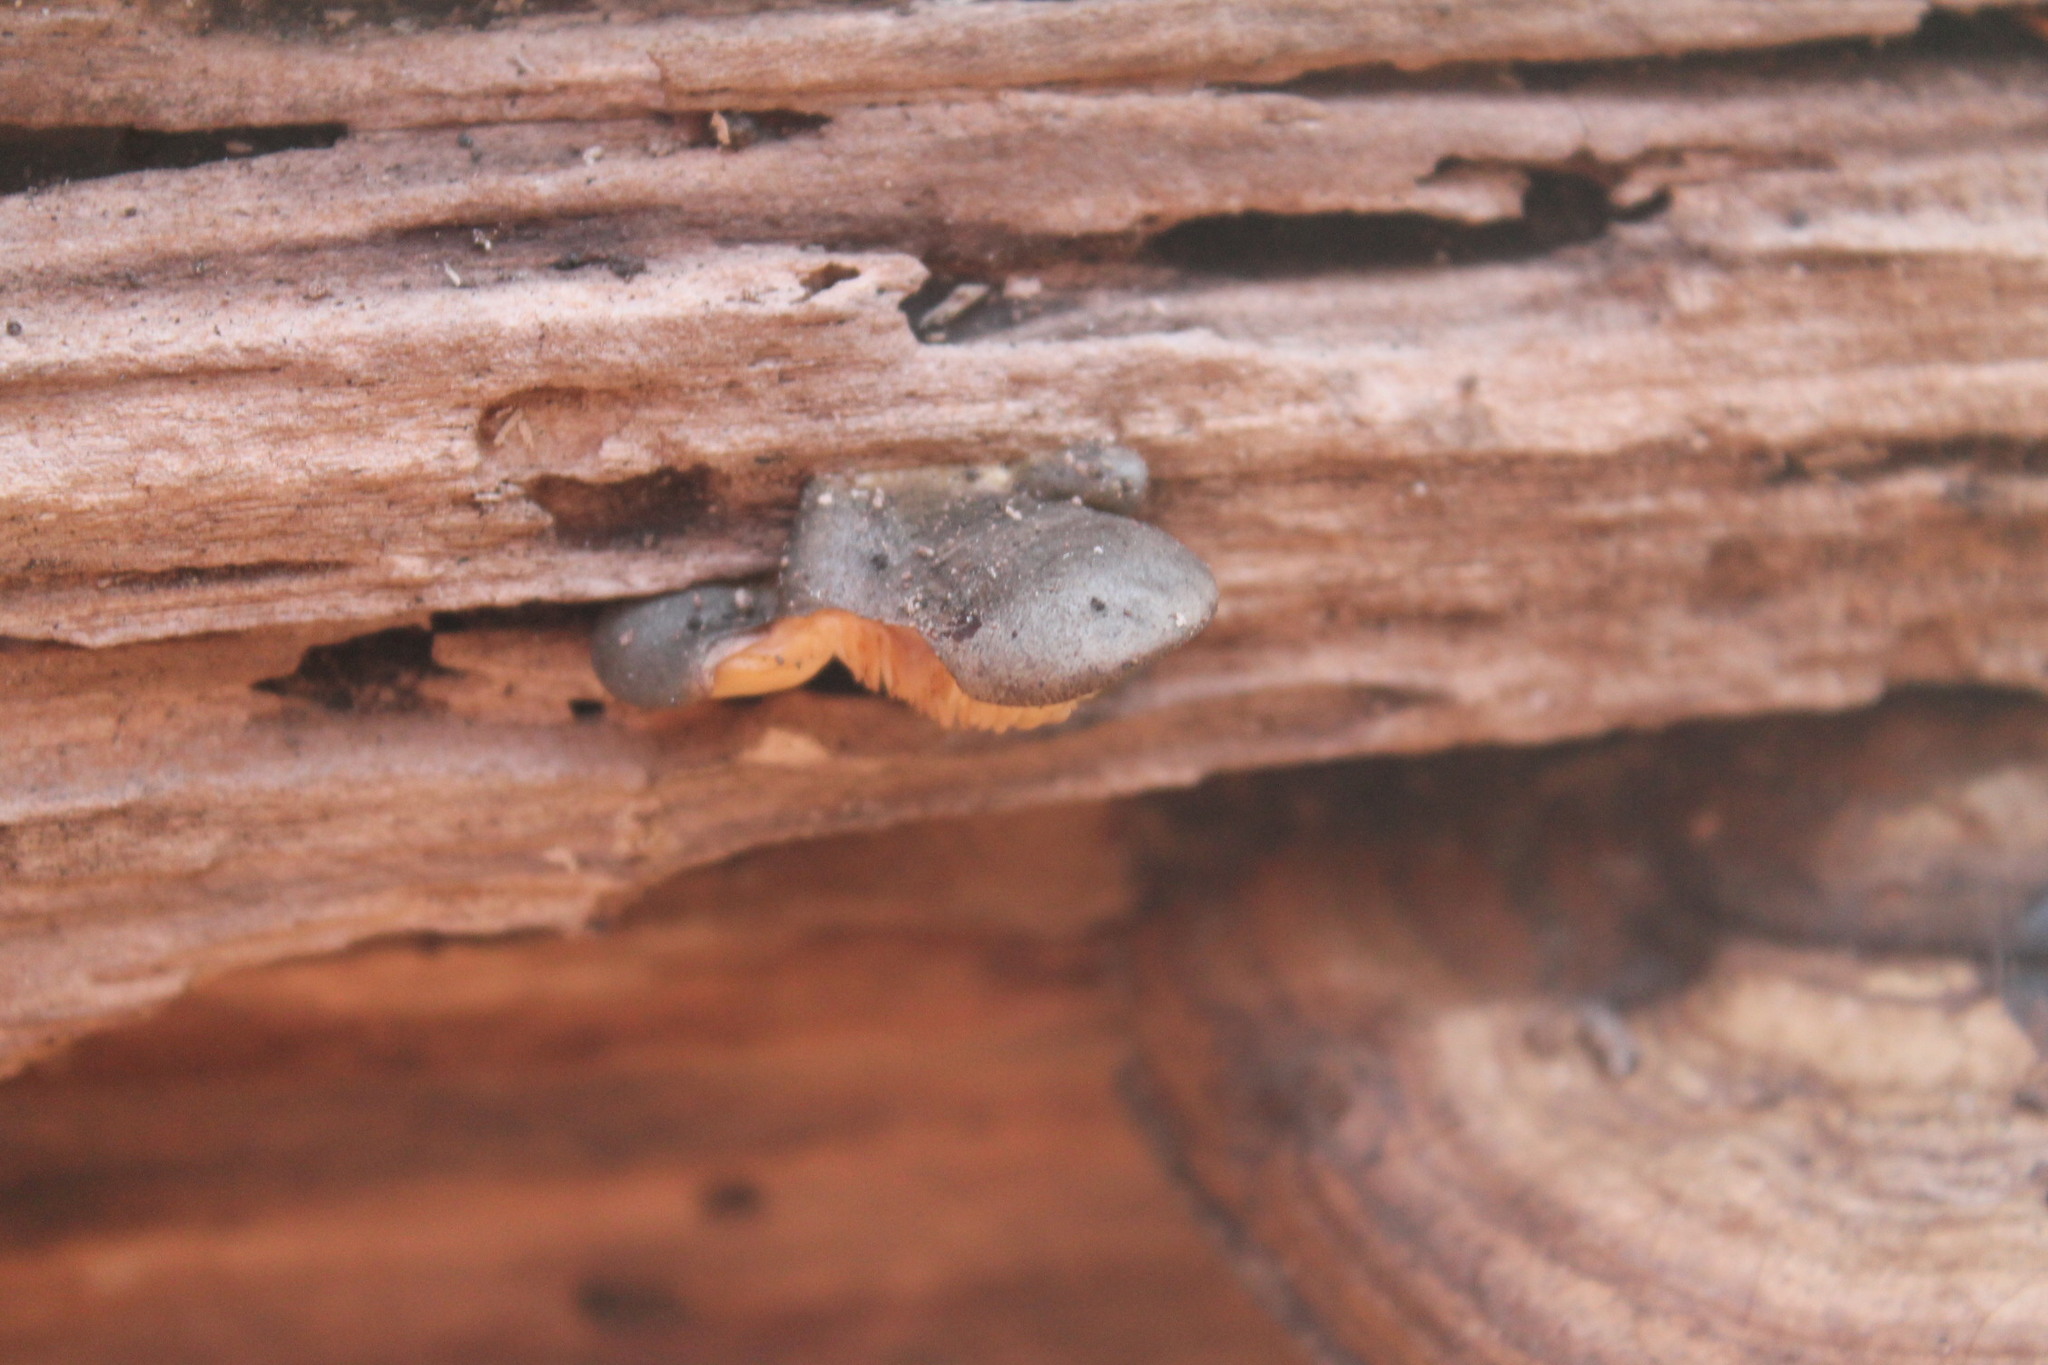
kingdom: Fungi
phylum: Basidiomycota
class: Agaricomycetes
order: Agaricales
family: Sarcomyxaceae
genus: Sarcomyxa
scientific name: Sarcomyxa serotina
